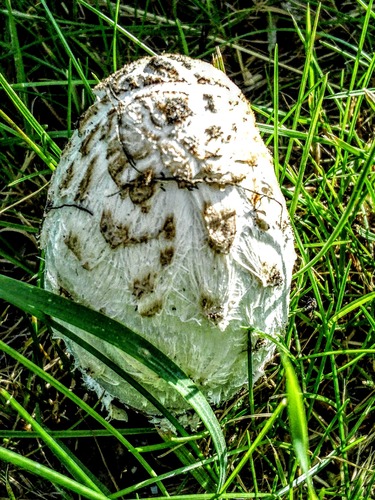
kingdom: Fungi
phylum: Basidiomycota
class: Agaricomycetes
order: Agaricales
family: Agaricaceae
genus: Coprinus
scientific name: Coprinus comatus
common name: Lawyer's wig
